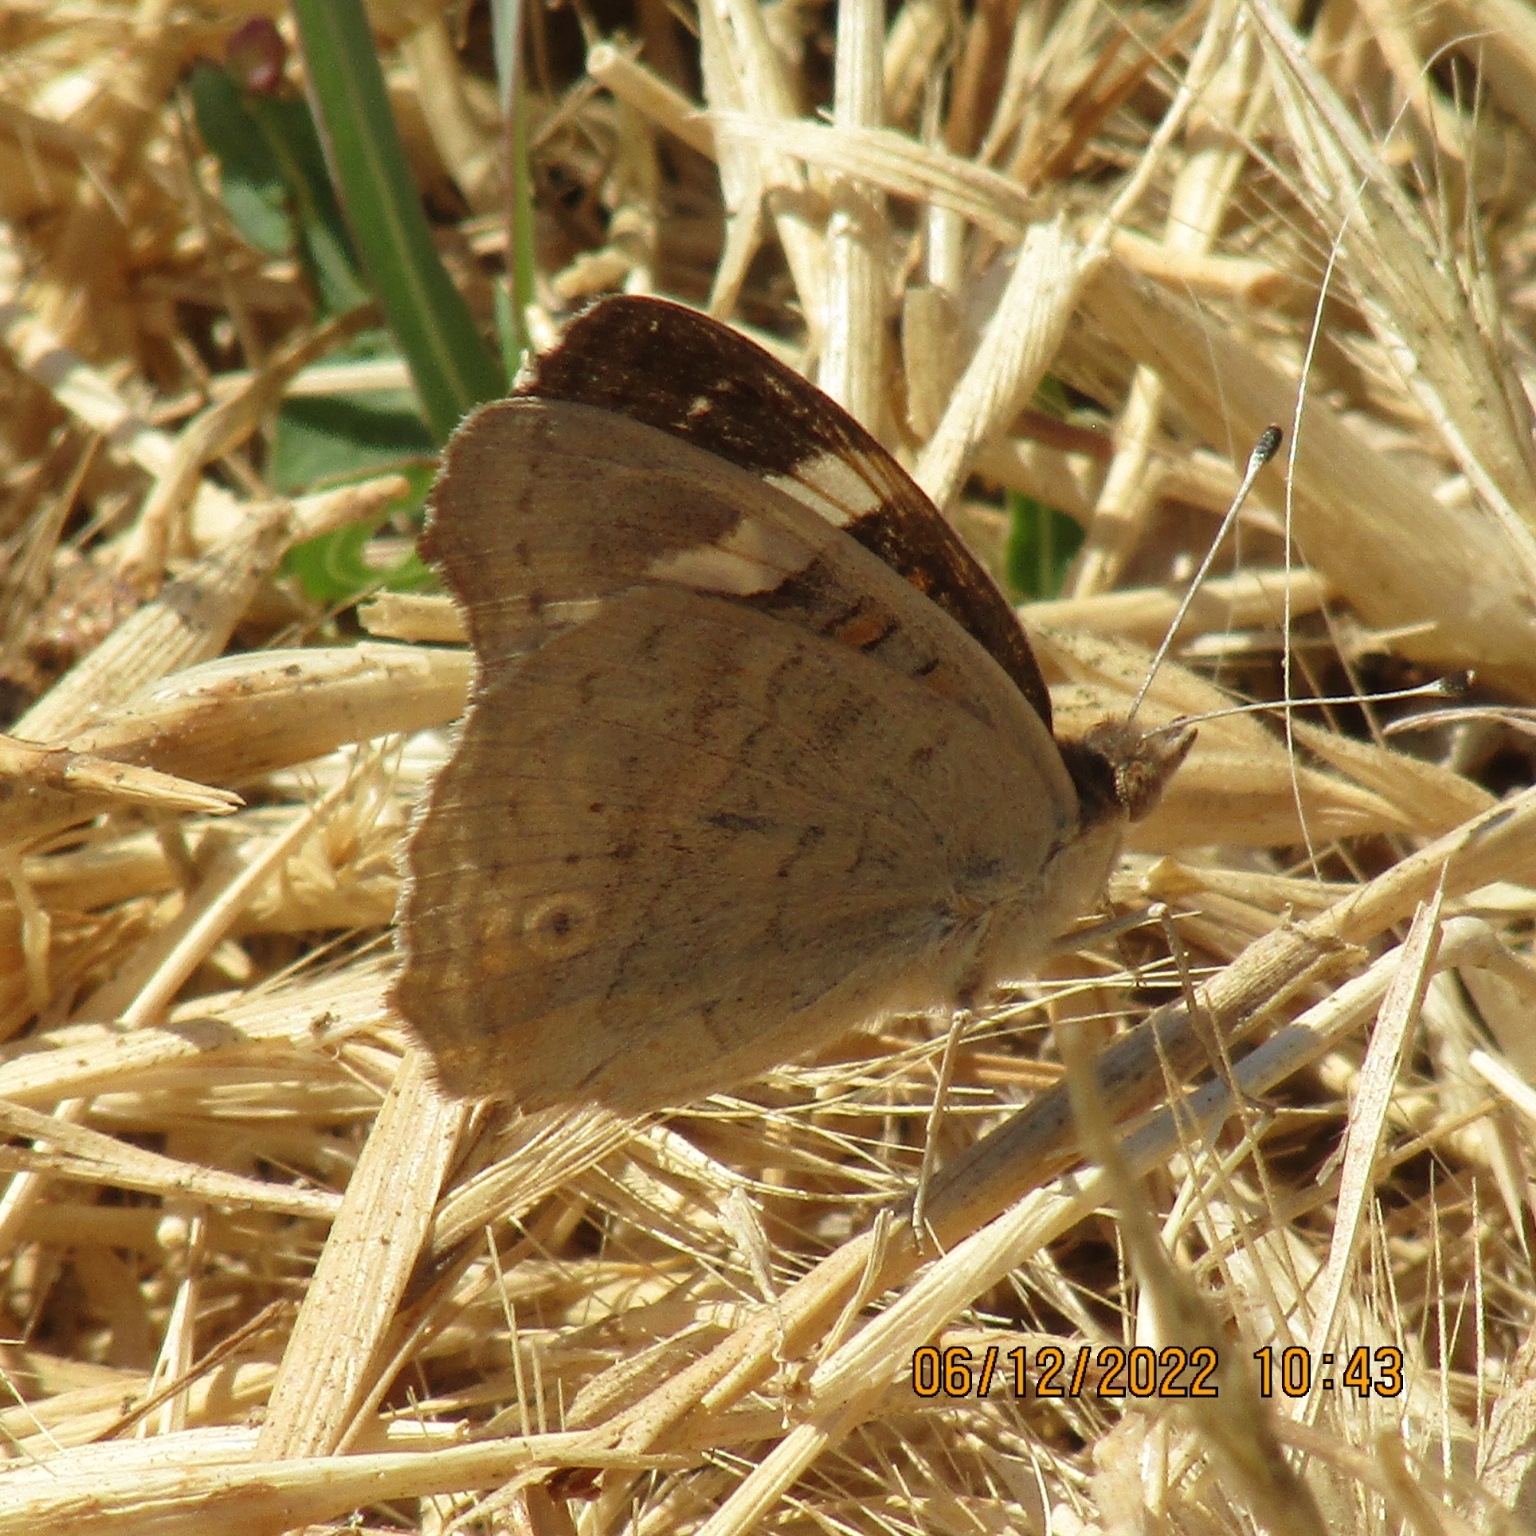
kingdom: Animalia
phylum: Arthropoda
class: Insecta
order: Lepidoptera
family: Nymphalidae
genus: Junonia
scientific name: Junonia grisea
